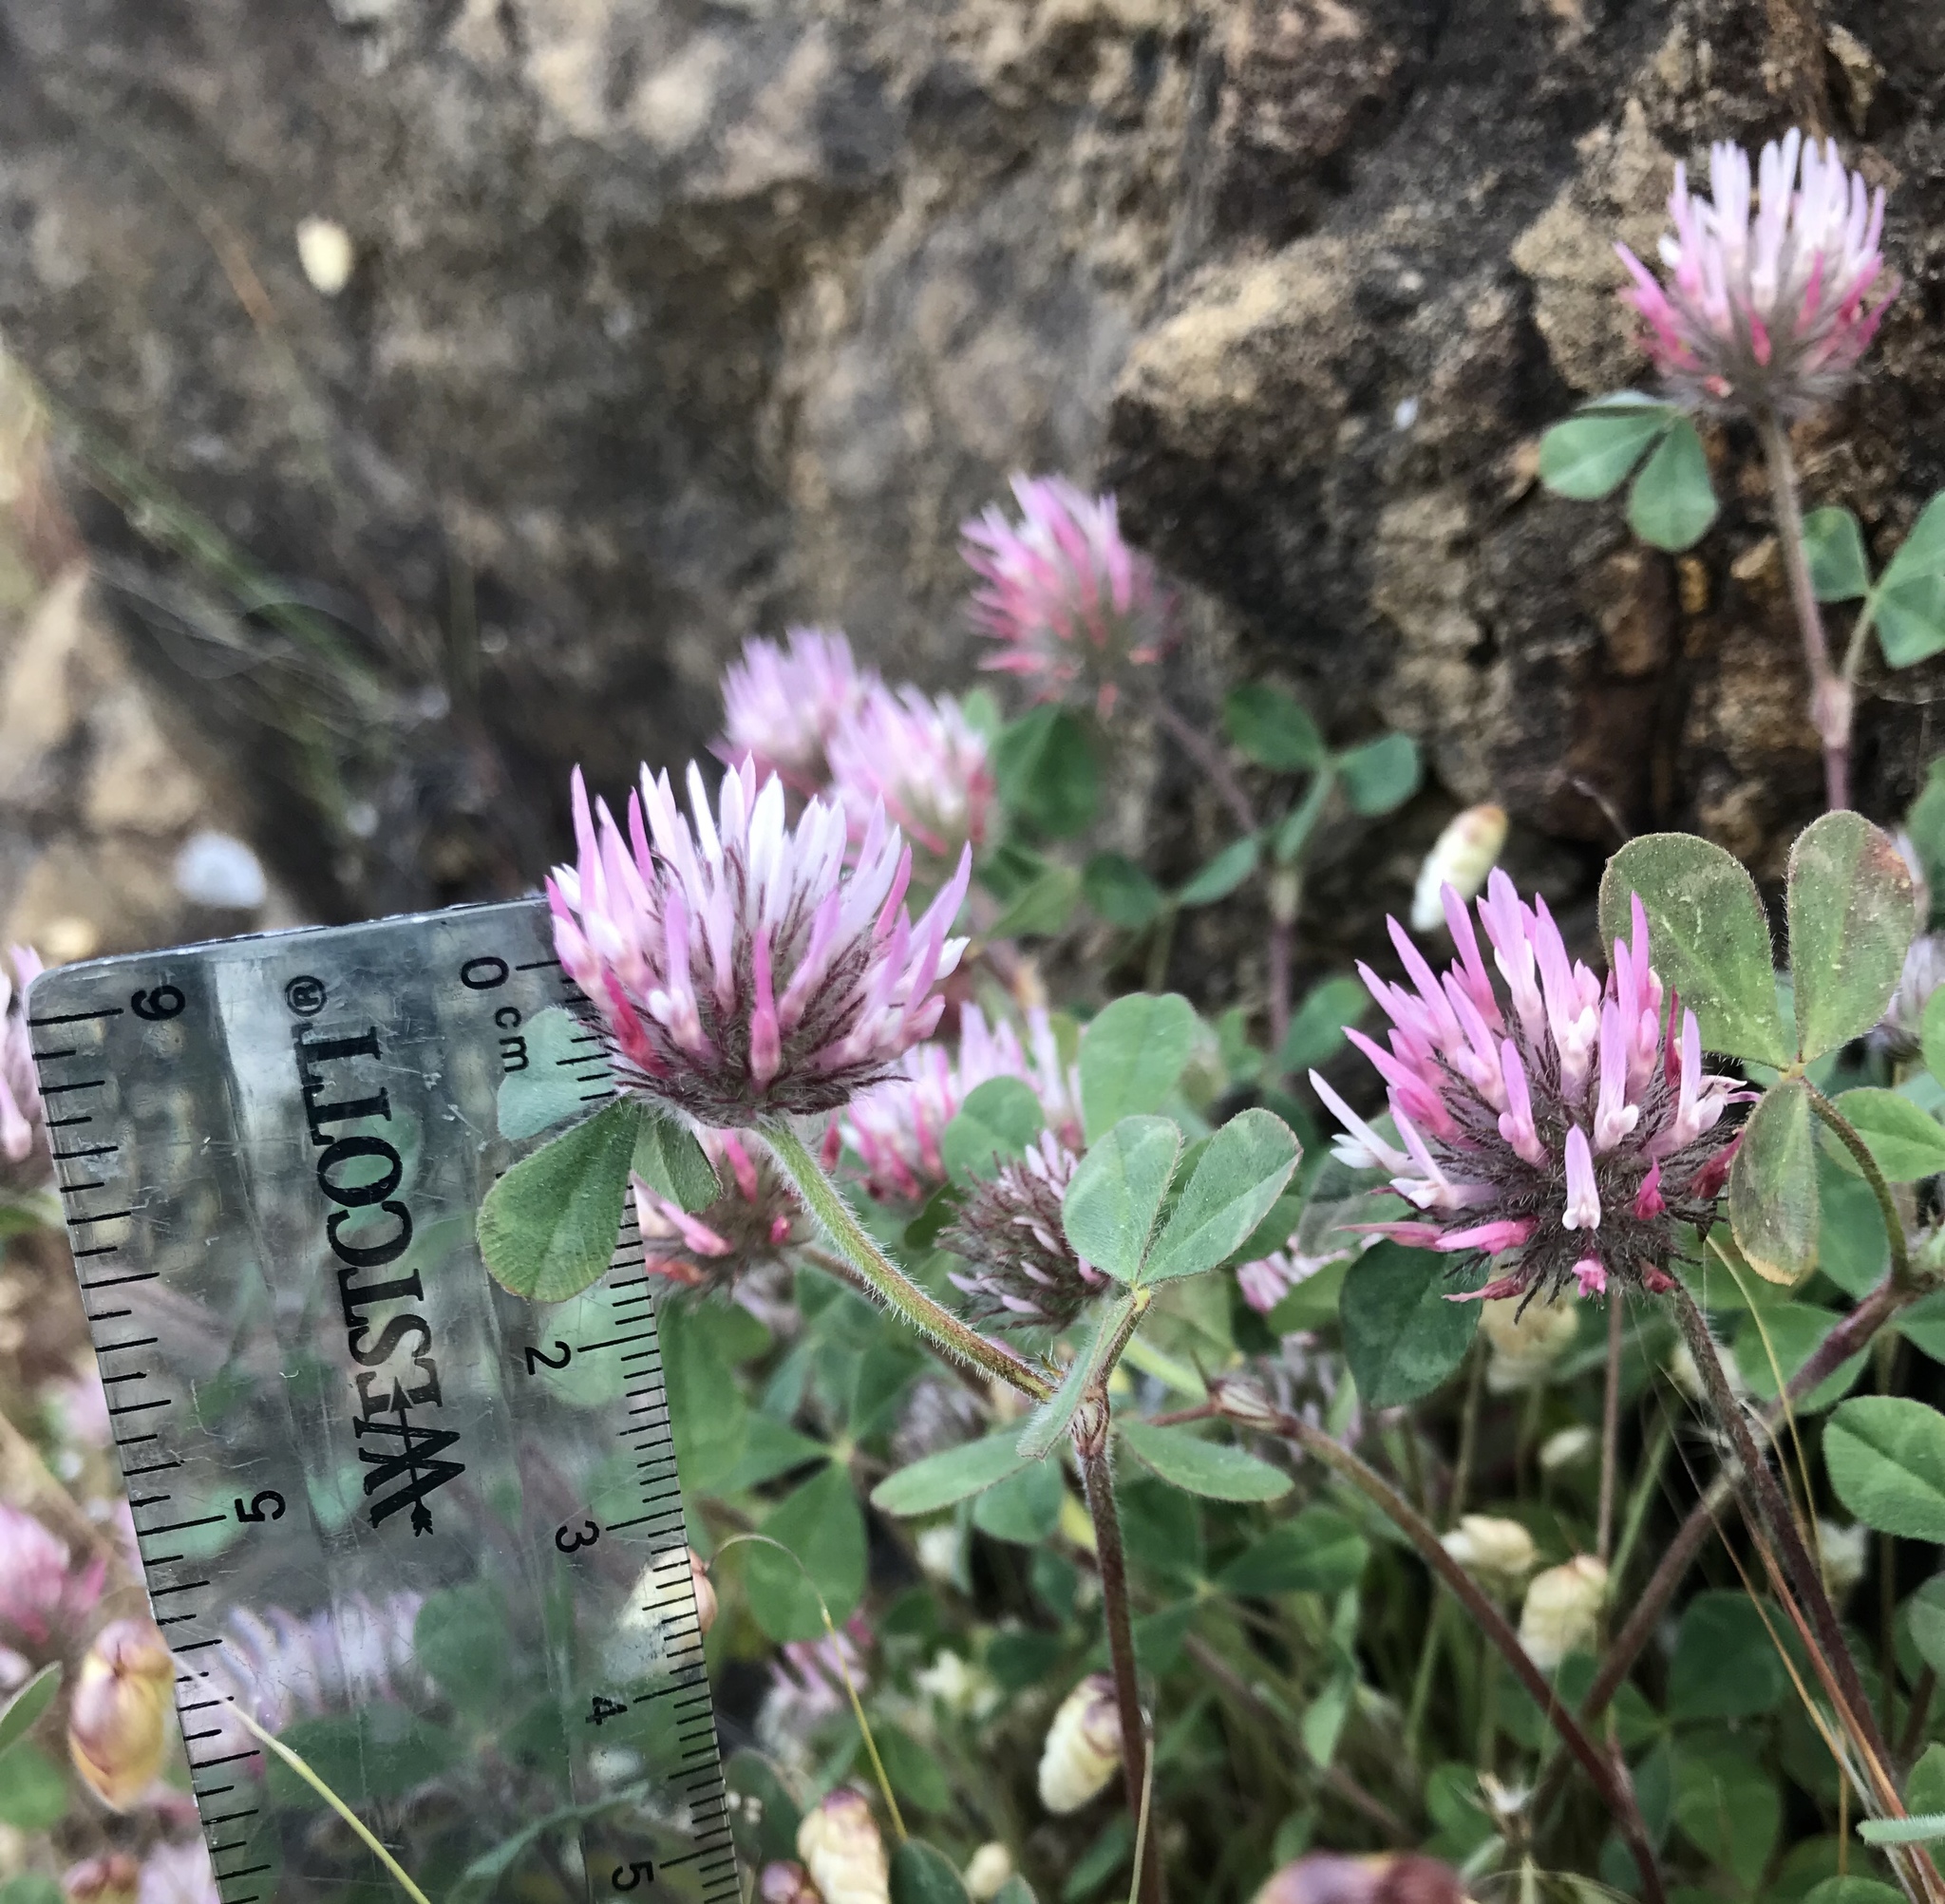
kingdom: Plantae
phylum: Tracheophyta
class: Magnoliopsida
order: Fabales
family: Fabaceae
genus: Trifolium
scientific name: Trifolium hirtum
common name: Rose clover
